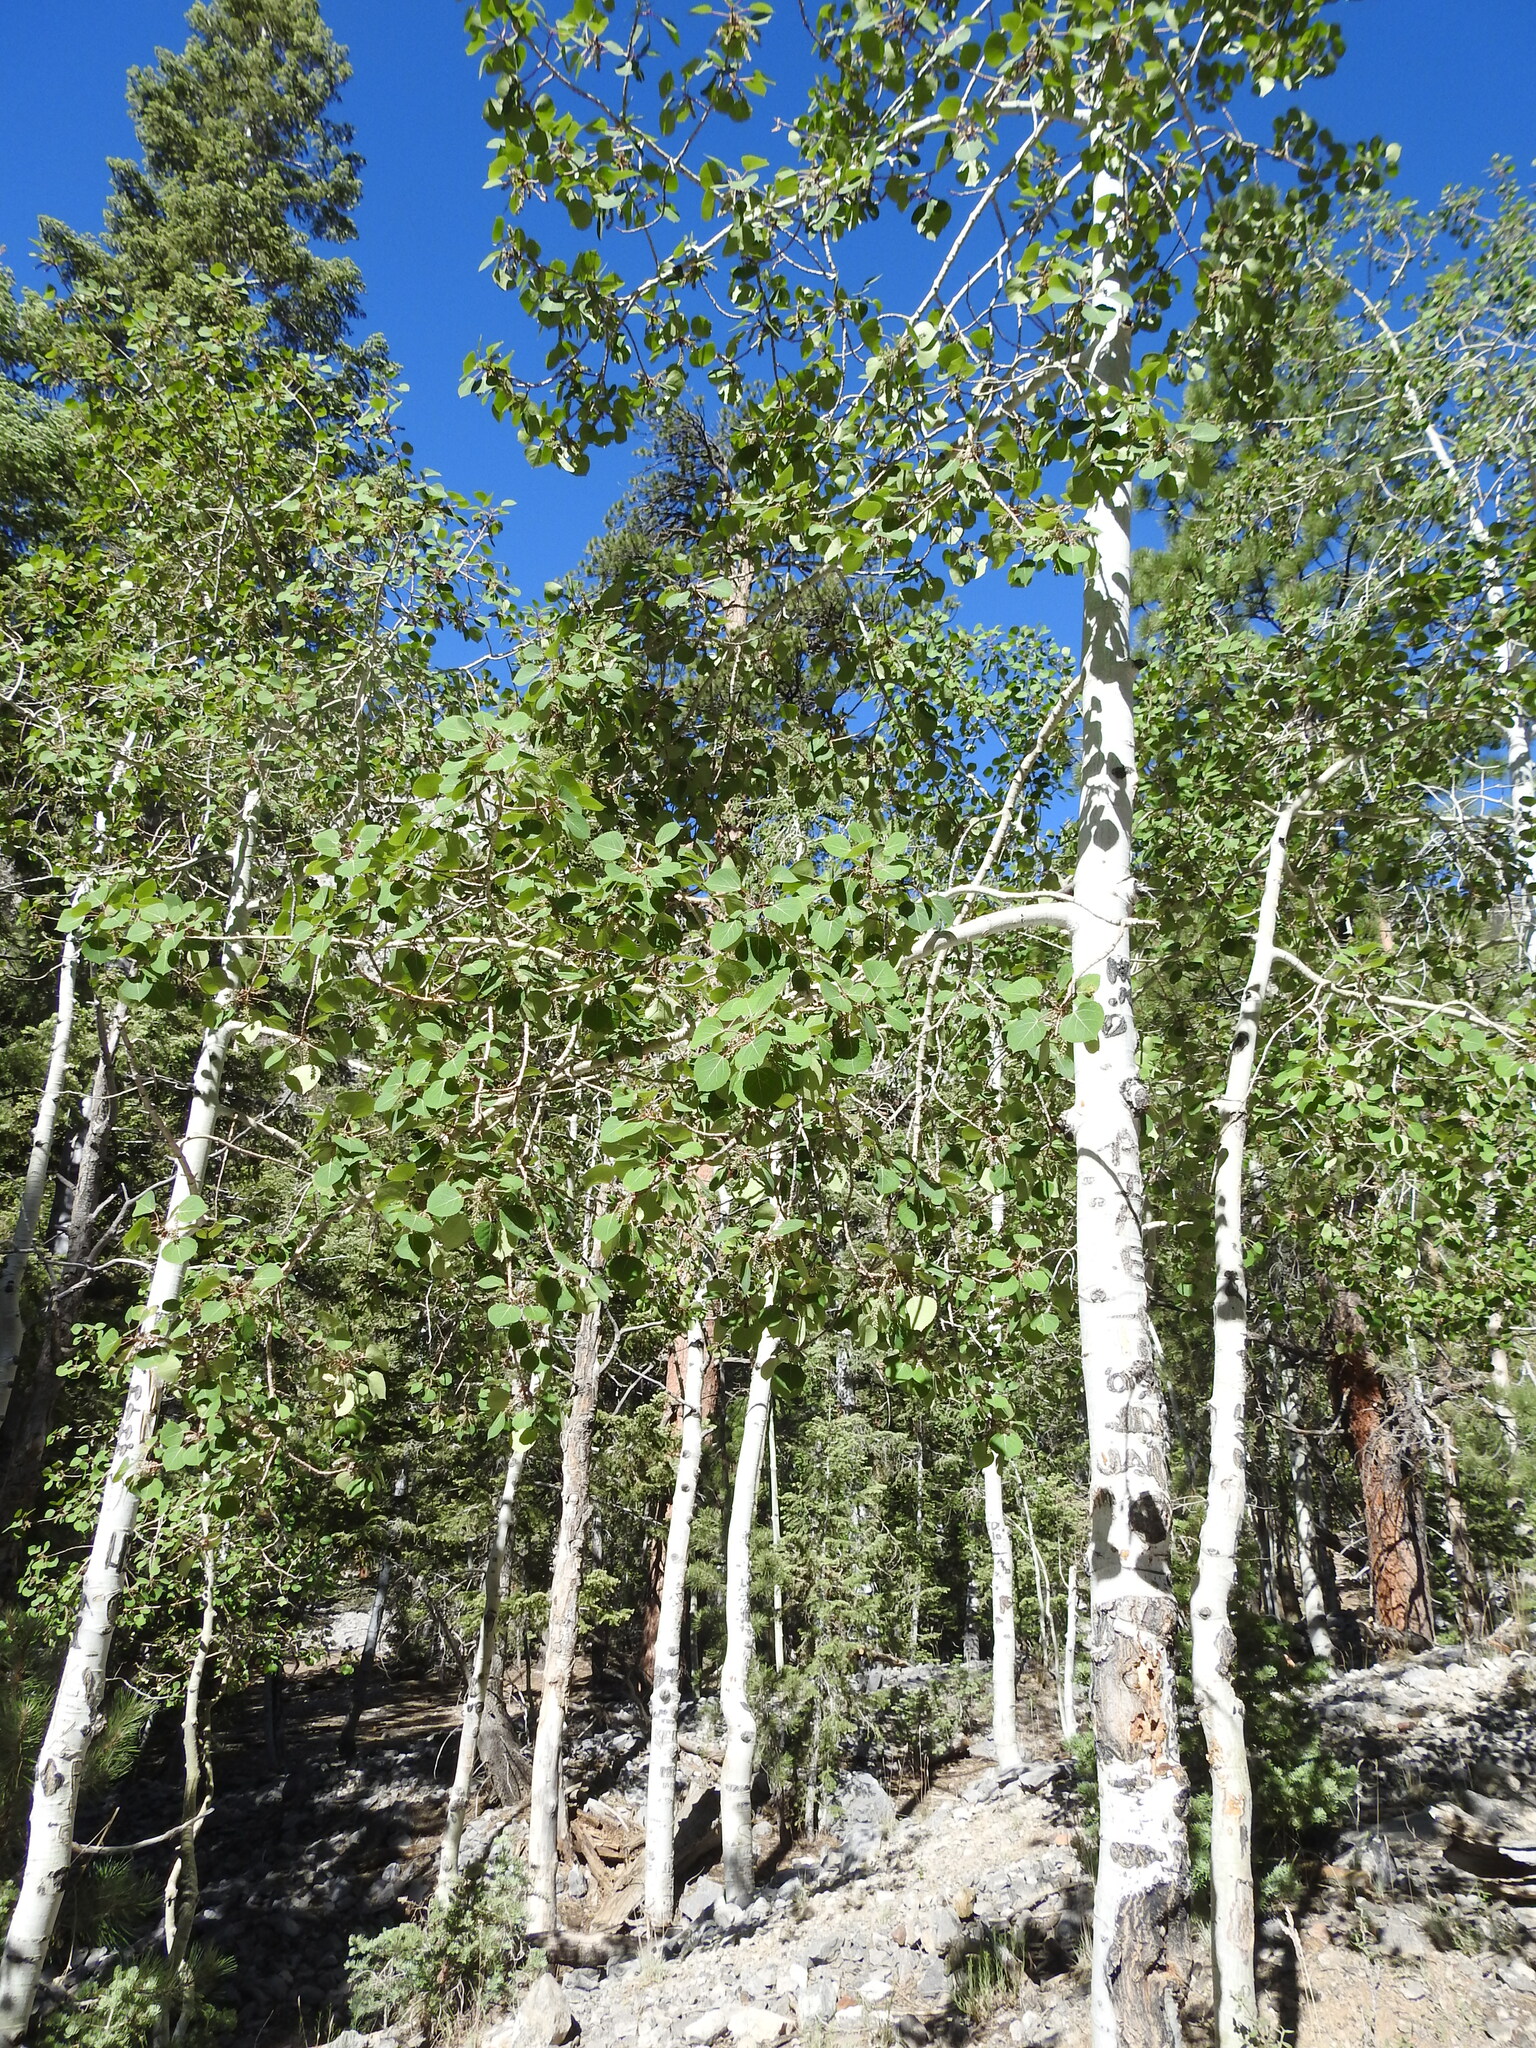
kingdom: Plantae
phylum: Tracheophyta
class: Magnoliopsida
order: Malpighiales
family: Salicaceae
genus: Populus
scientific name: Populus tremuloides
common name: Quaking aspen
